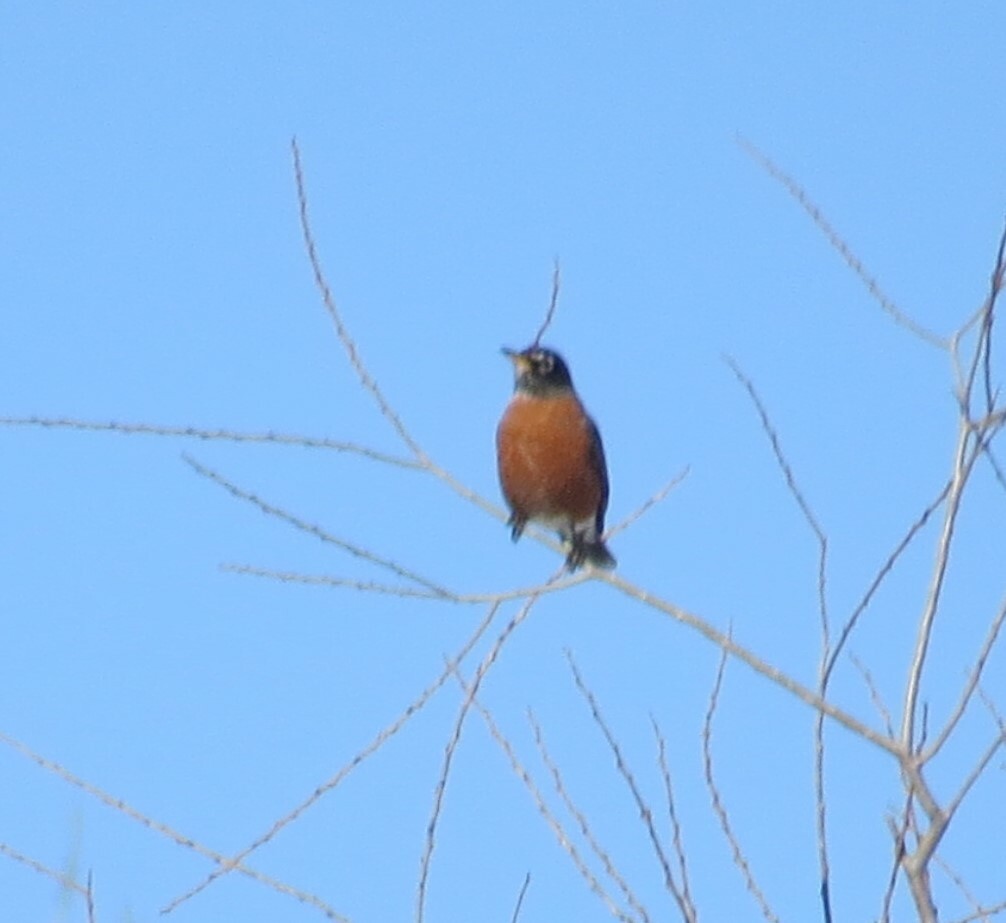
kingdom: Animalia
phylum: Chordata
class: Aves
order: Passeriformes
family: Turdidae
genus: Turdus
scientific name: Turdus migratorius
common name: American robin
